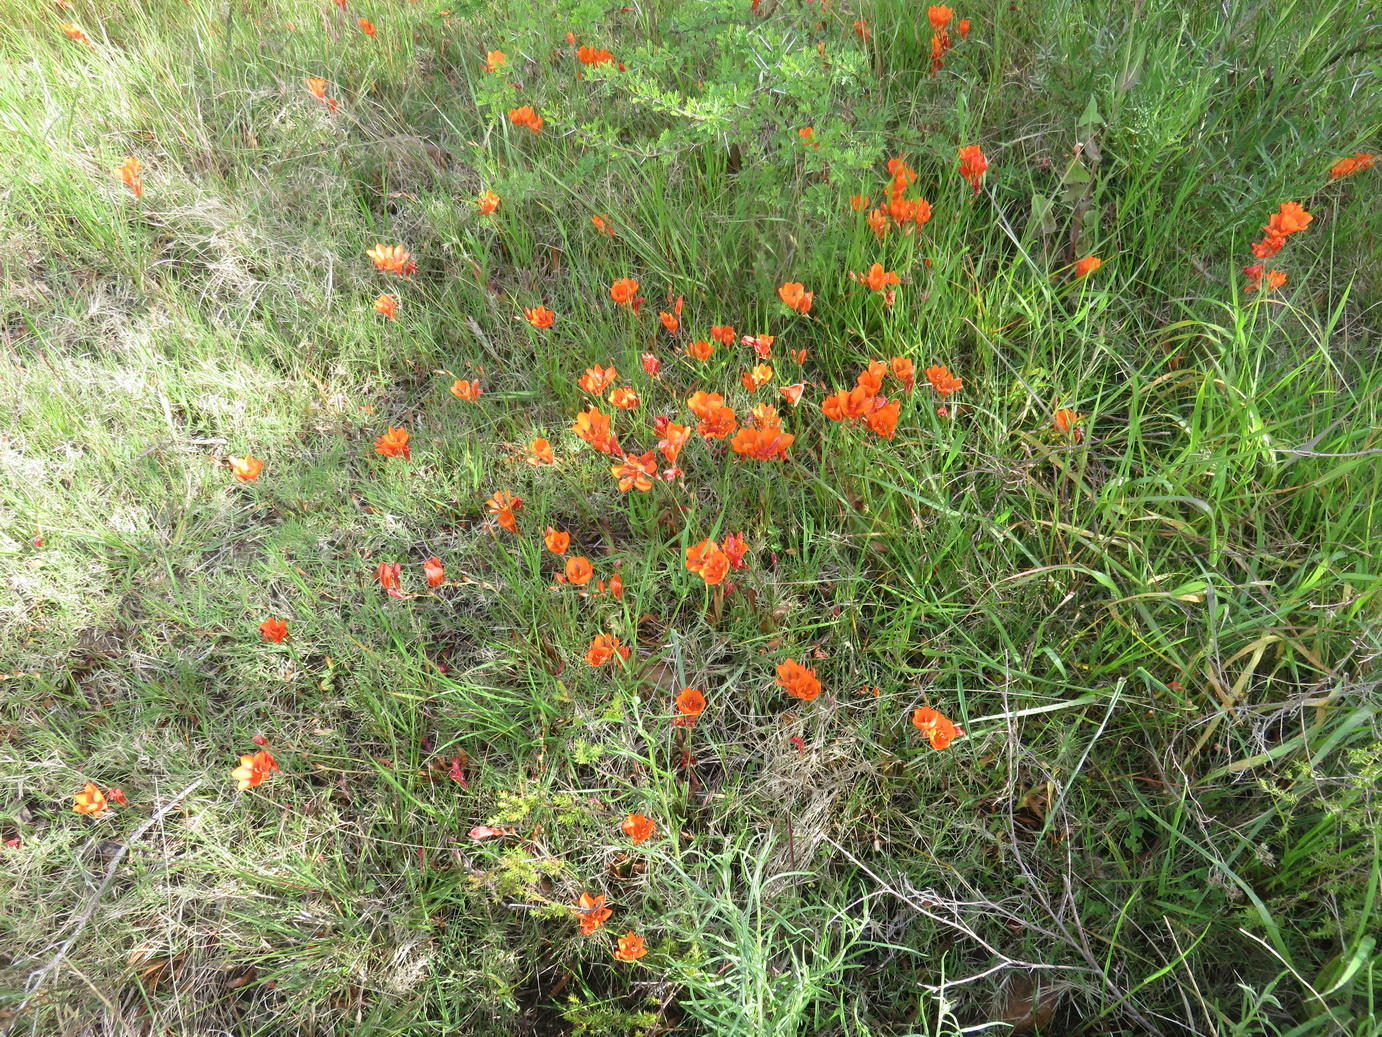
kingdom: Plantae
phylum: Tracheophyta
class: Liliopsida
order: Asparagales
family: Iridaceae
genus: Tritonia
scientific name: Tritonia crocata
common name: Flame-freesia
